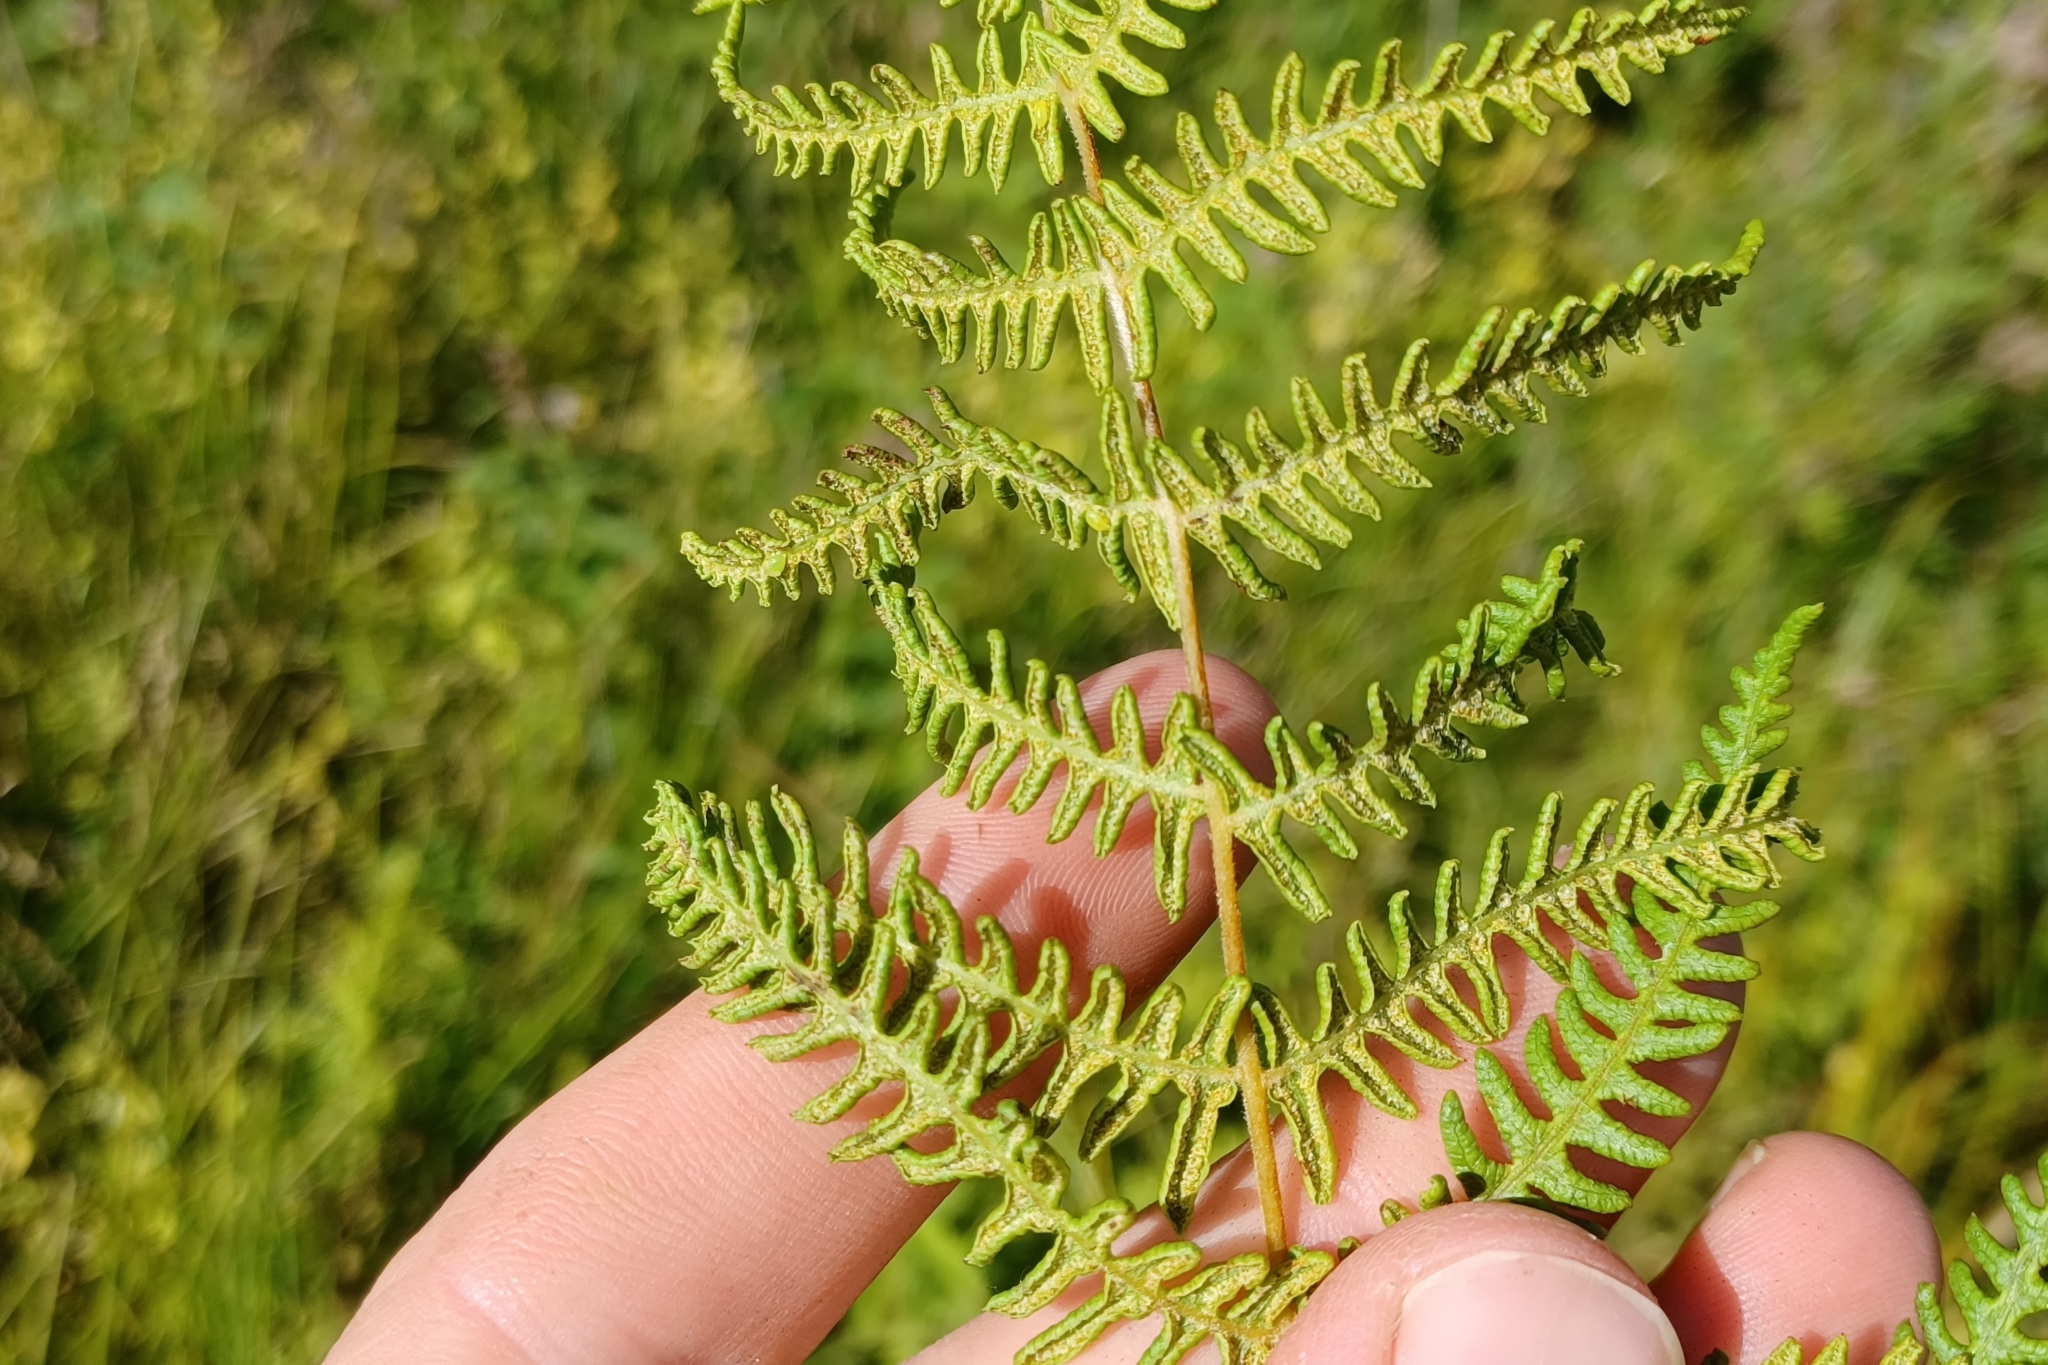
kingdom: Plantae
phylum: Tracheophyta
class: Polypodiopsida
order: Polypodiales
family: Thelypteridaceae
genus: Thelypteris
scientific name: Thelypteris palustris
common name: Marsh fern
